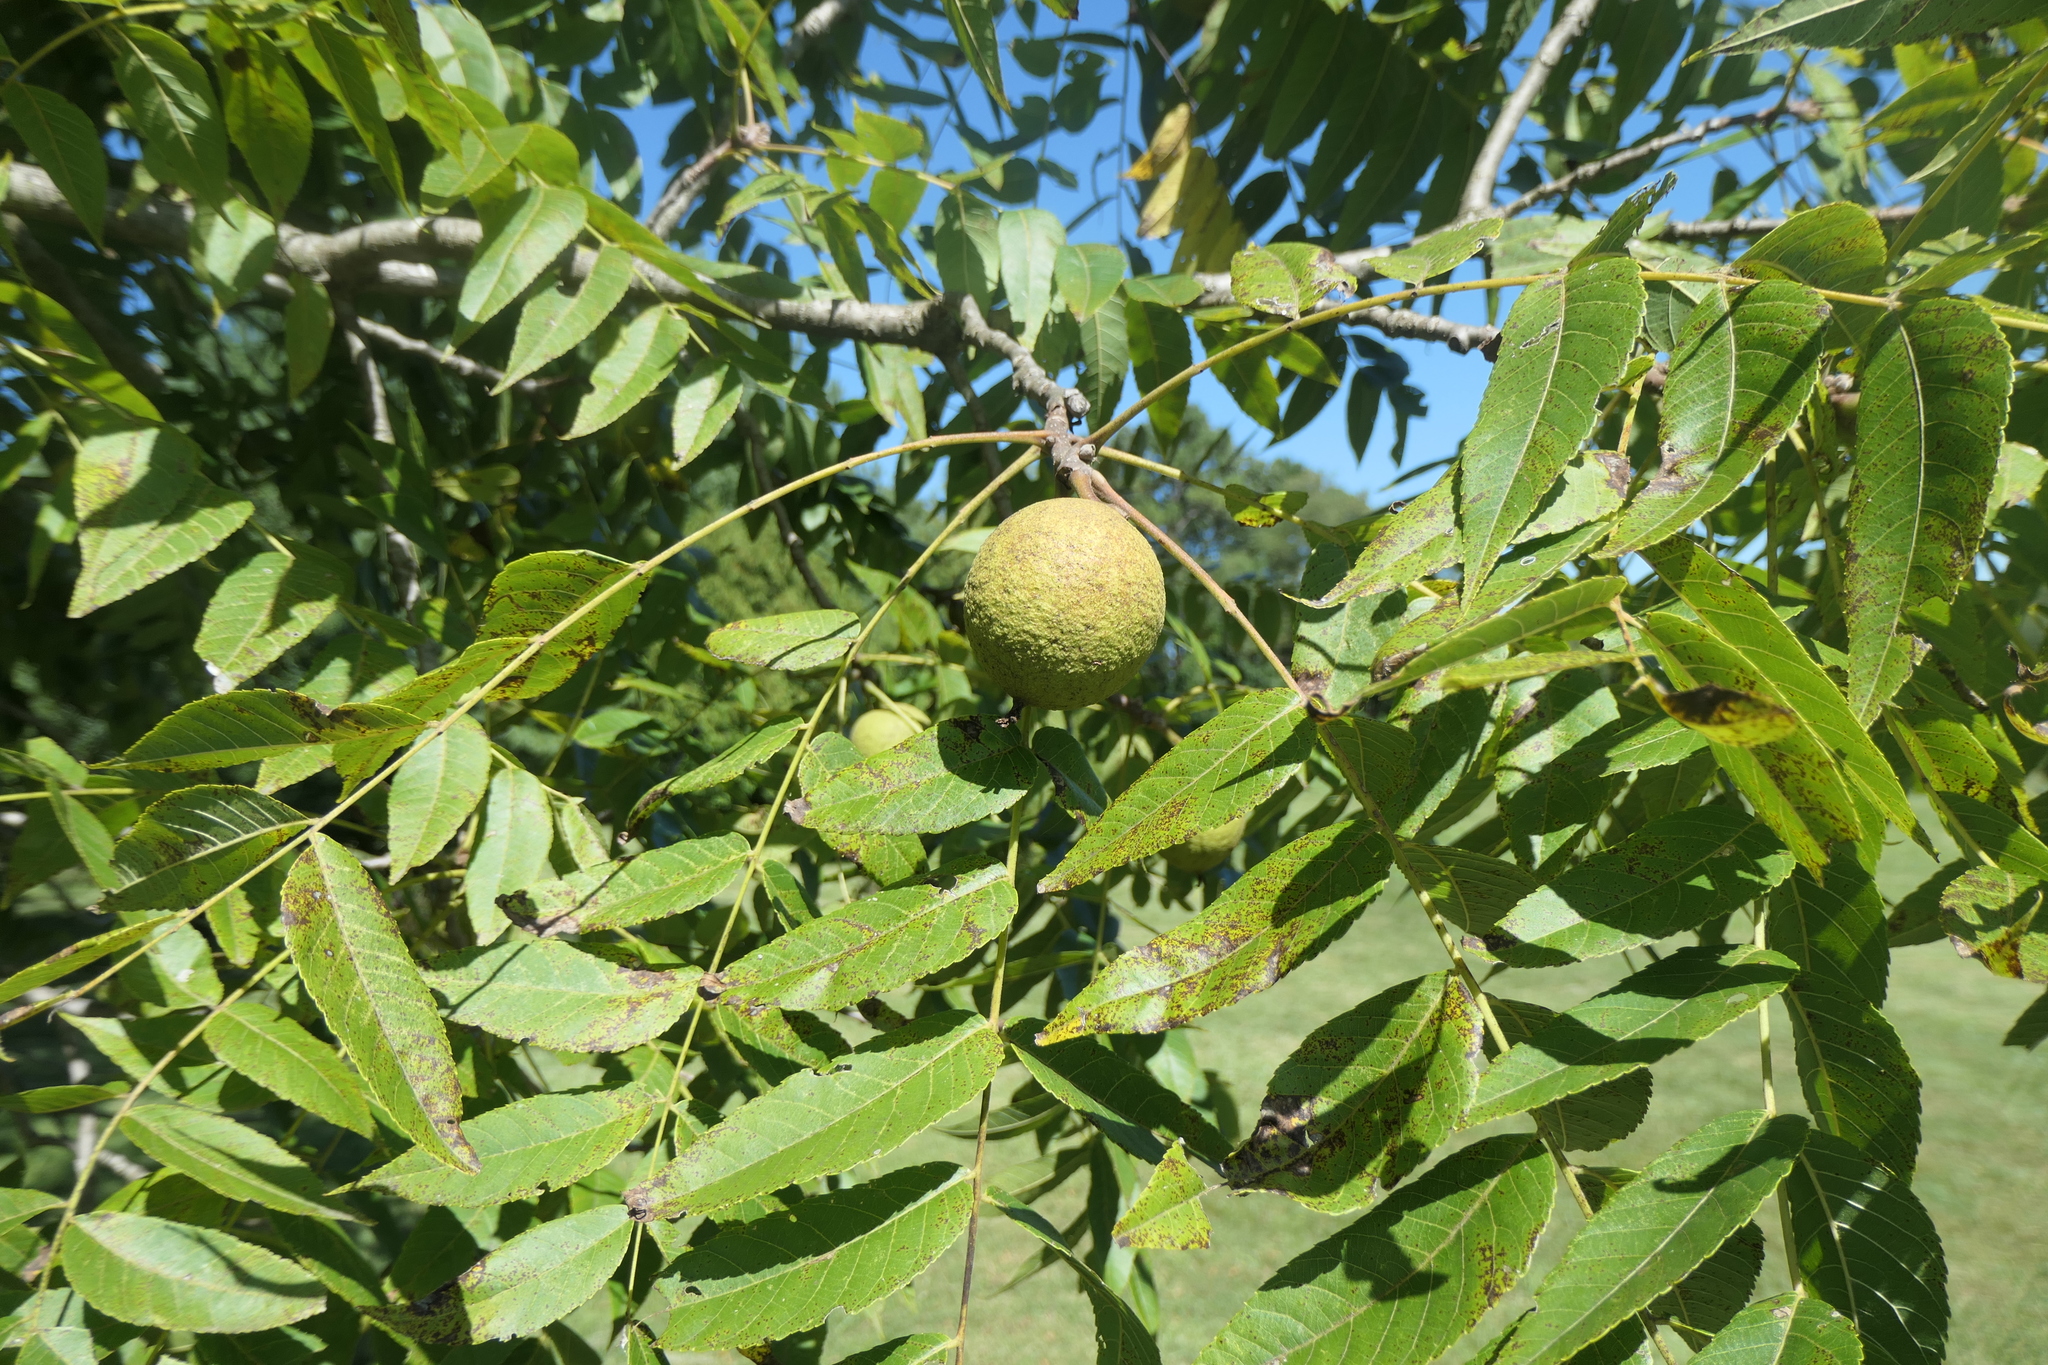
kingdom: Plantae
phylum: Tracheophyta
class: Magnoliopsida
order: Fagales
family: Juglandaceae
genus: Juglans
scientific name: Juglans nigra
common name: Black walnut
